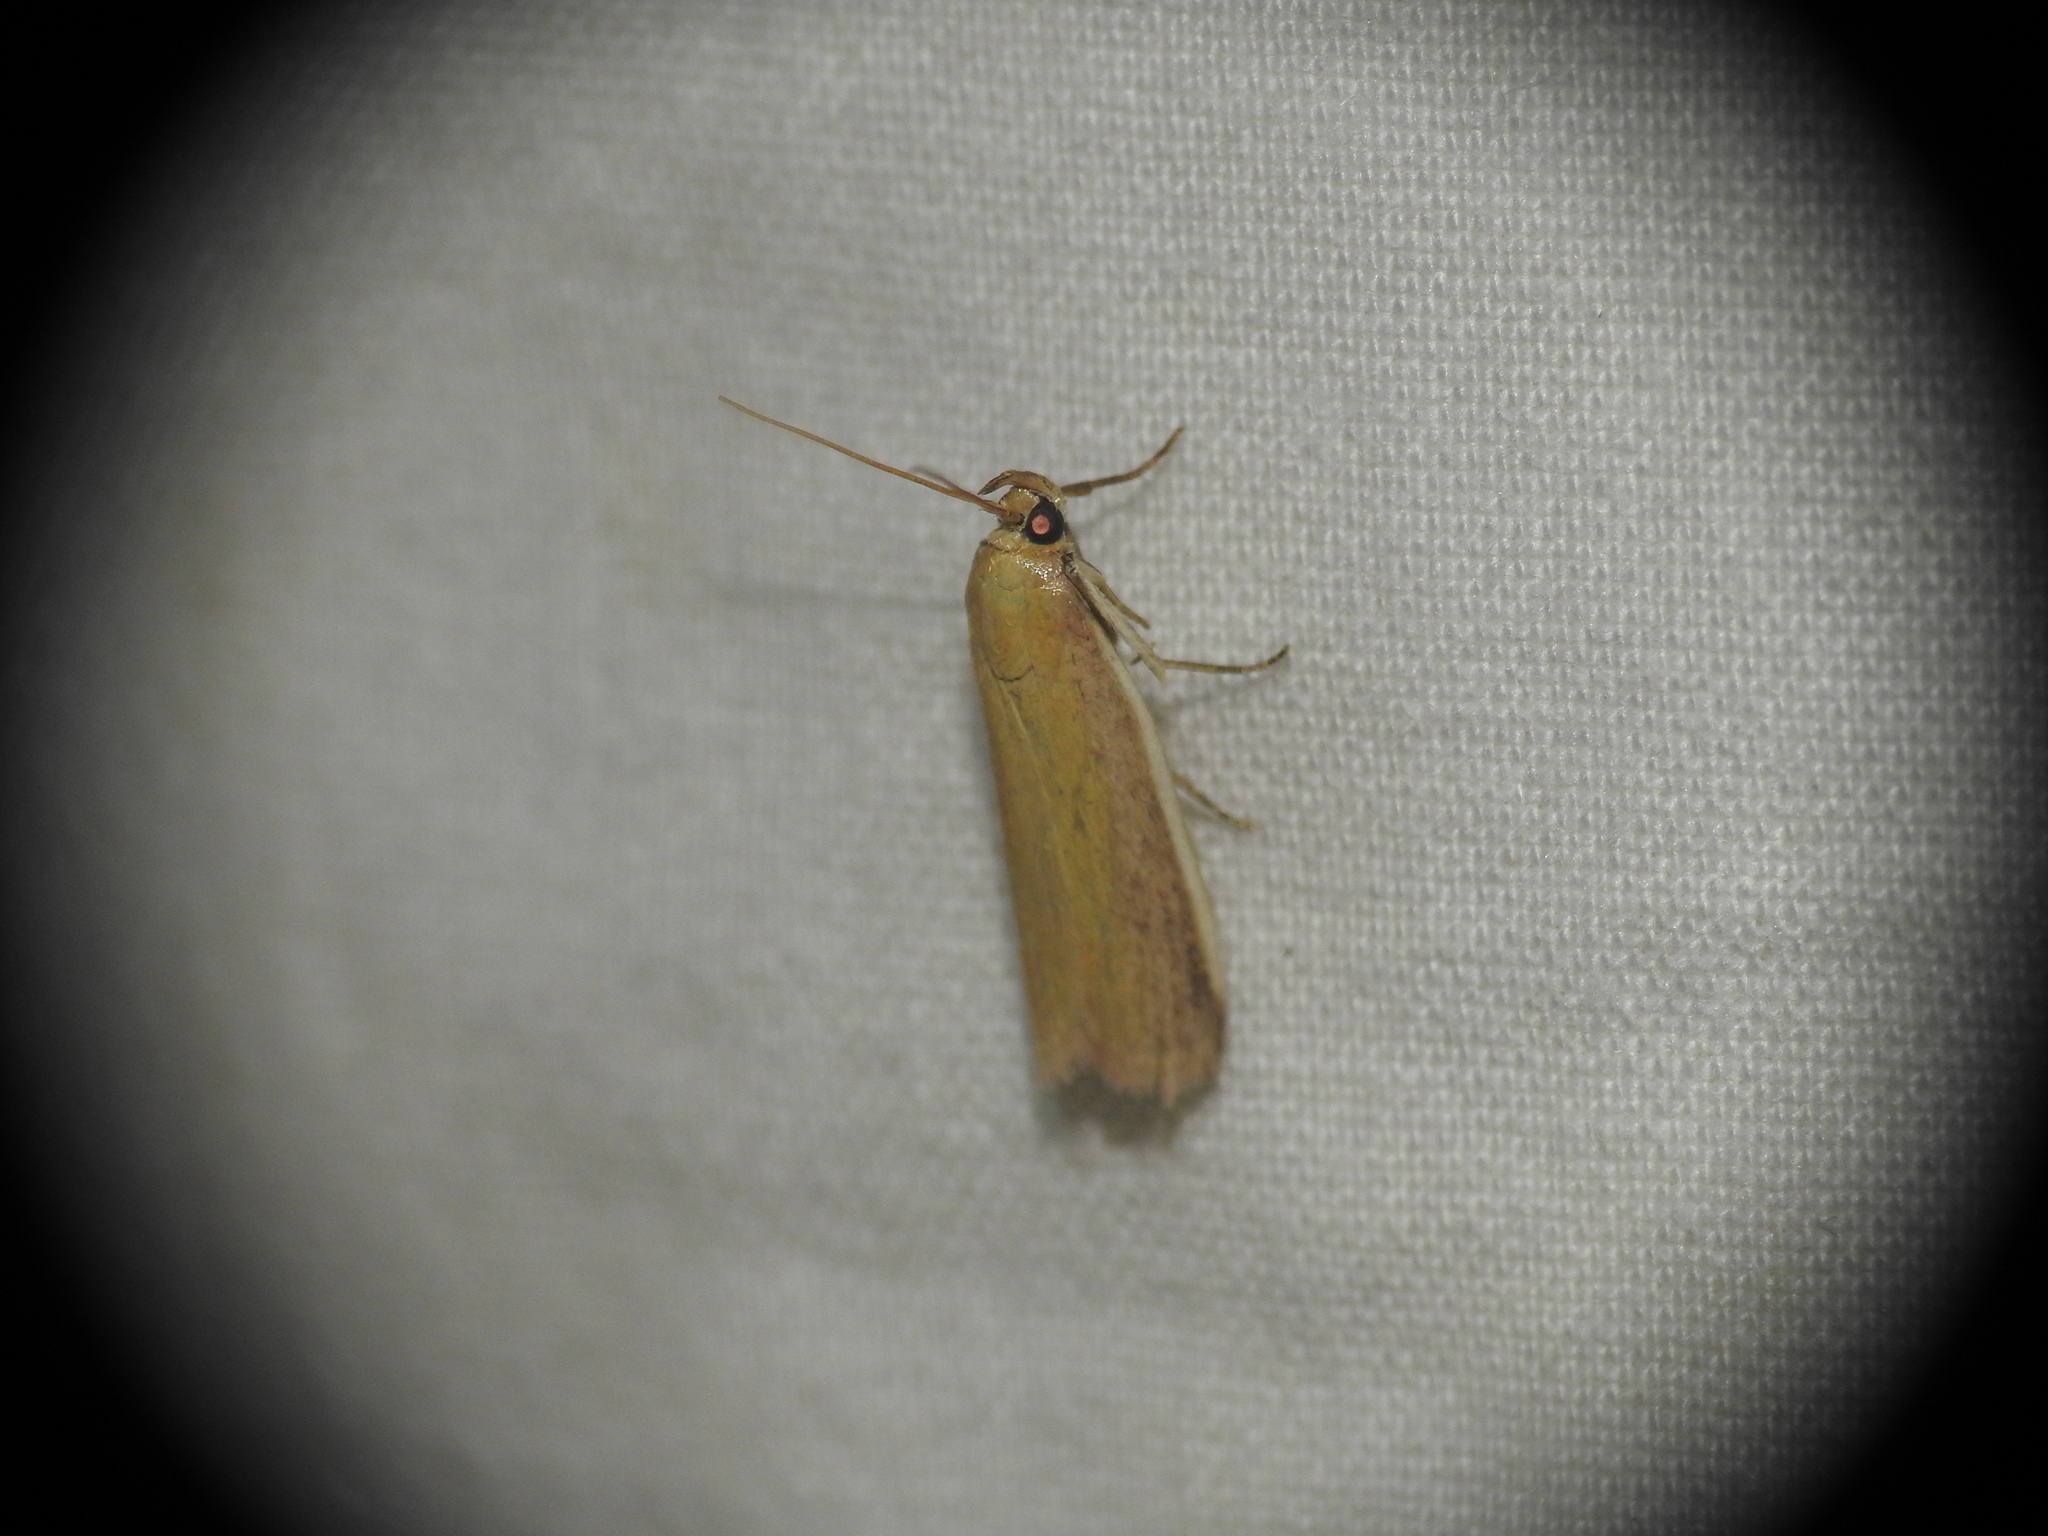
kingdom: Animalia
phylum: Arthropoda
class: Insecta
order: Lepidoptera
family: Pyralidae
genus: Oncocera
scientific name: Oncocera semirubella
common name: Rosy-striped knot-horn
